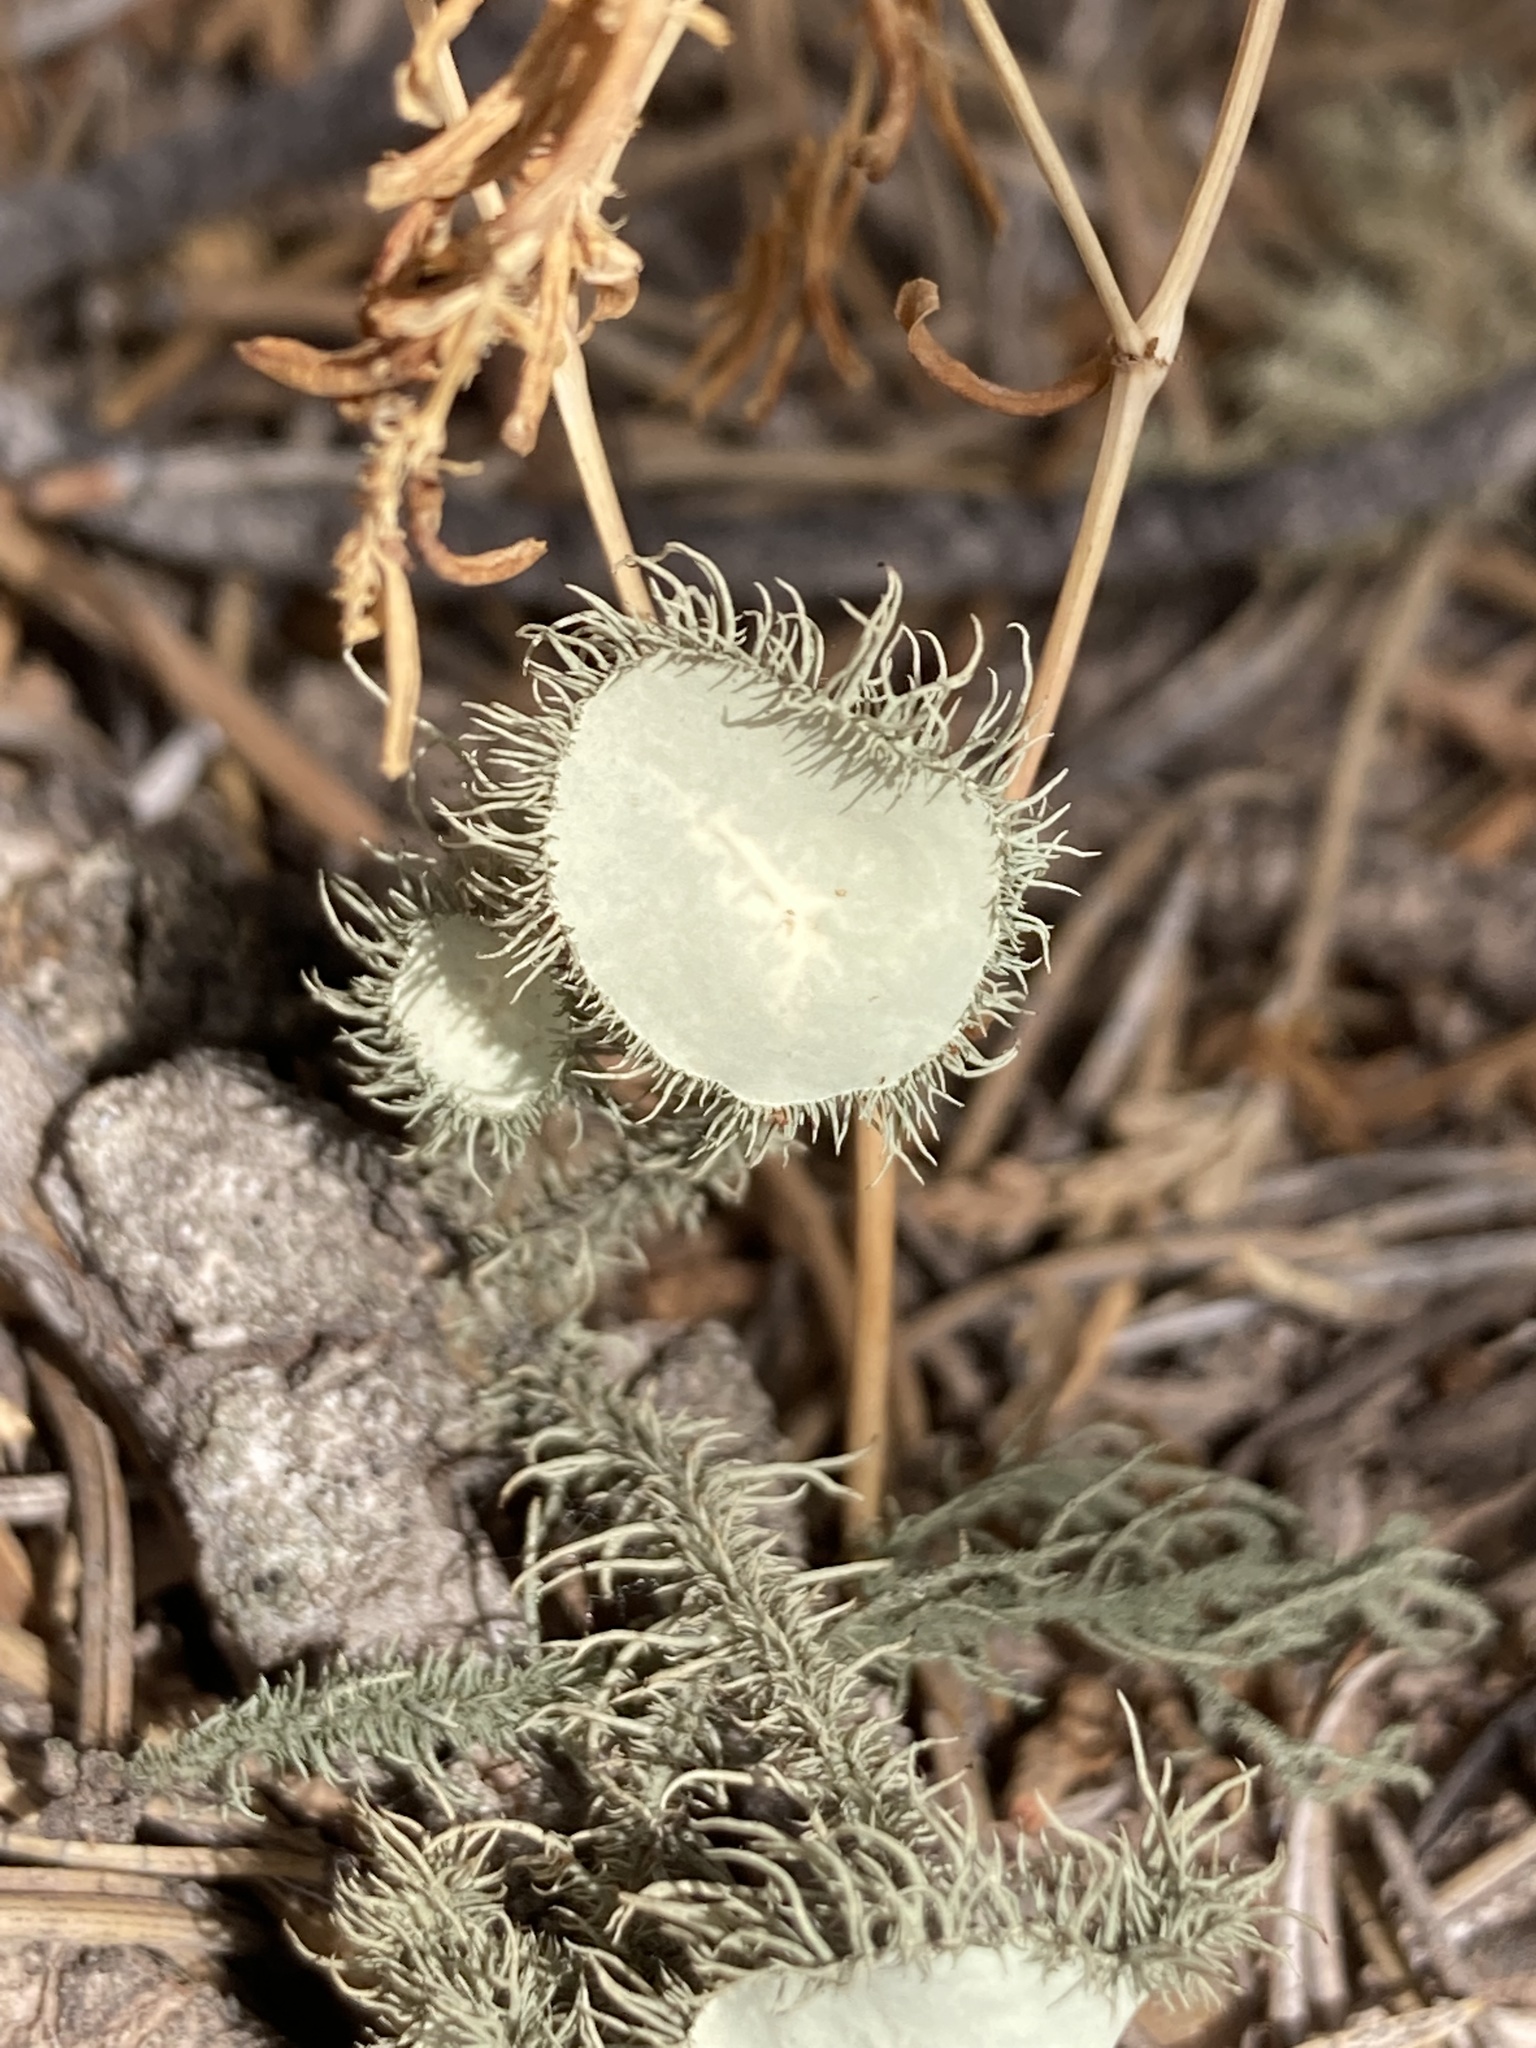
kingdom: Fungi
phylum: Ascomycota
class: Lecanoromycetes
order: Lecanorales
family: Parmeliaceae
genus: Usnea
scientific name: Usnea strigosa
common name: Bushy beard lichen
